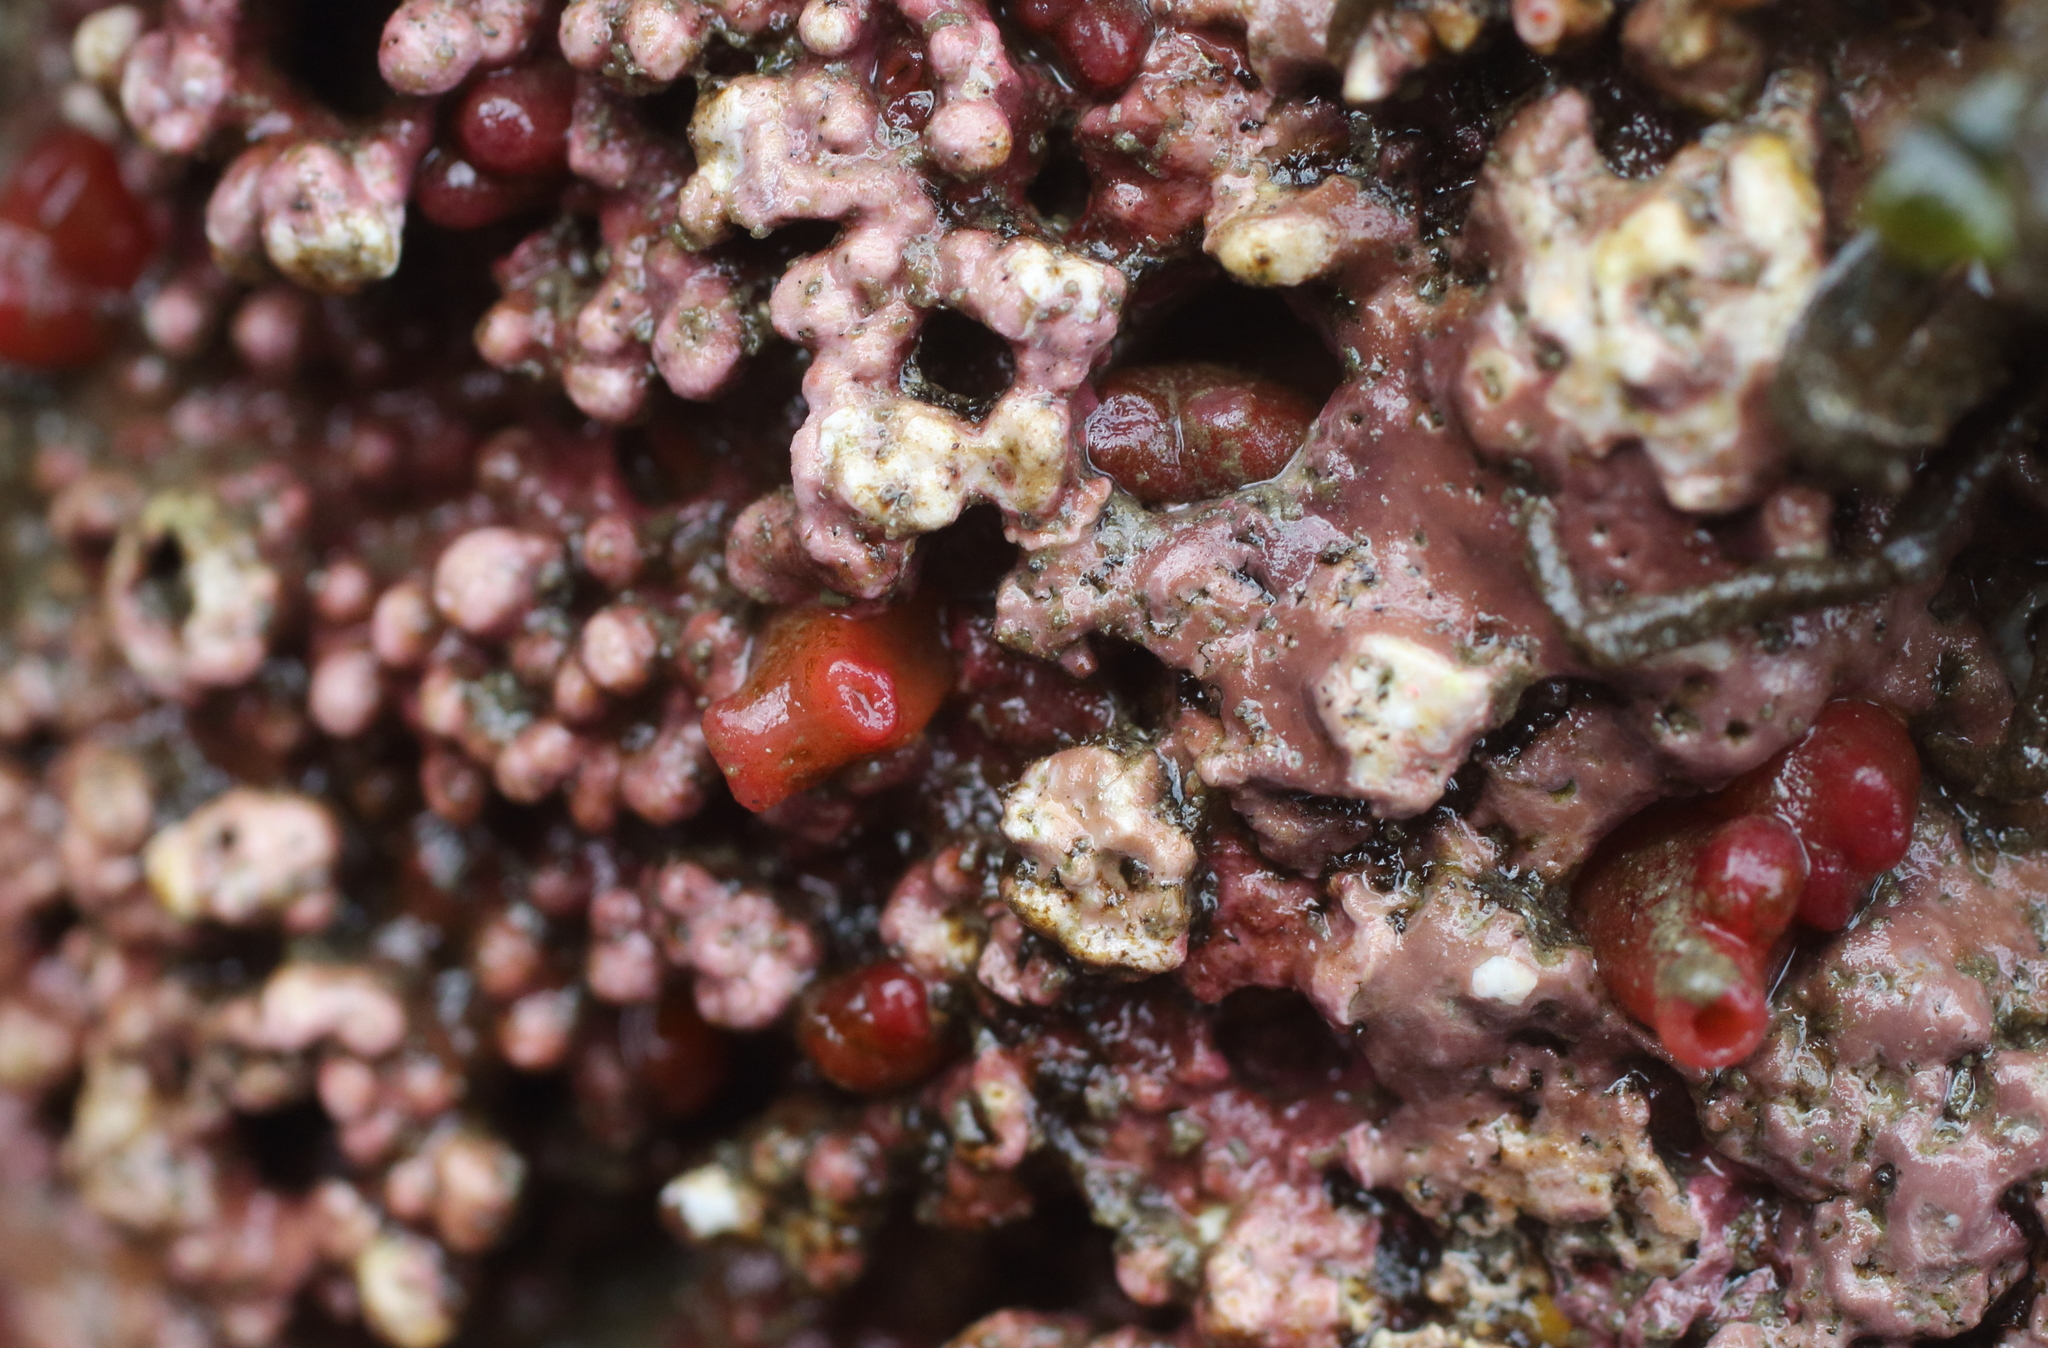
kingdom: Animalia
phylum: Mollusca
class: Bivalvia
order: Adapedonta
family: Hiatellidae
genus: Hiatella
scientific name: Hiatella arctica
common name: Arctic hiatella
